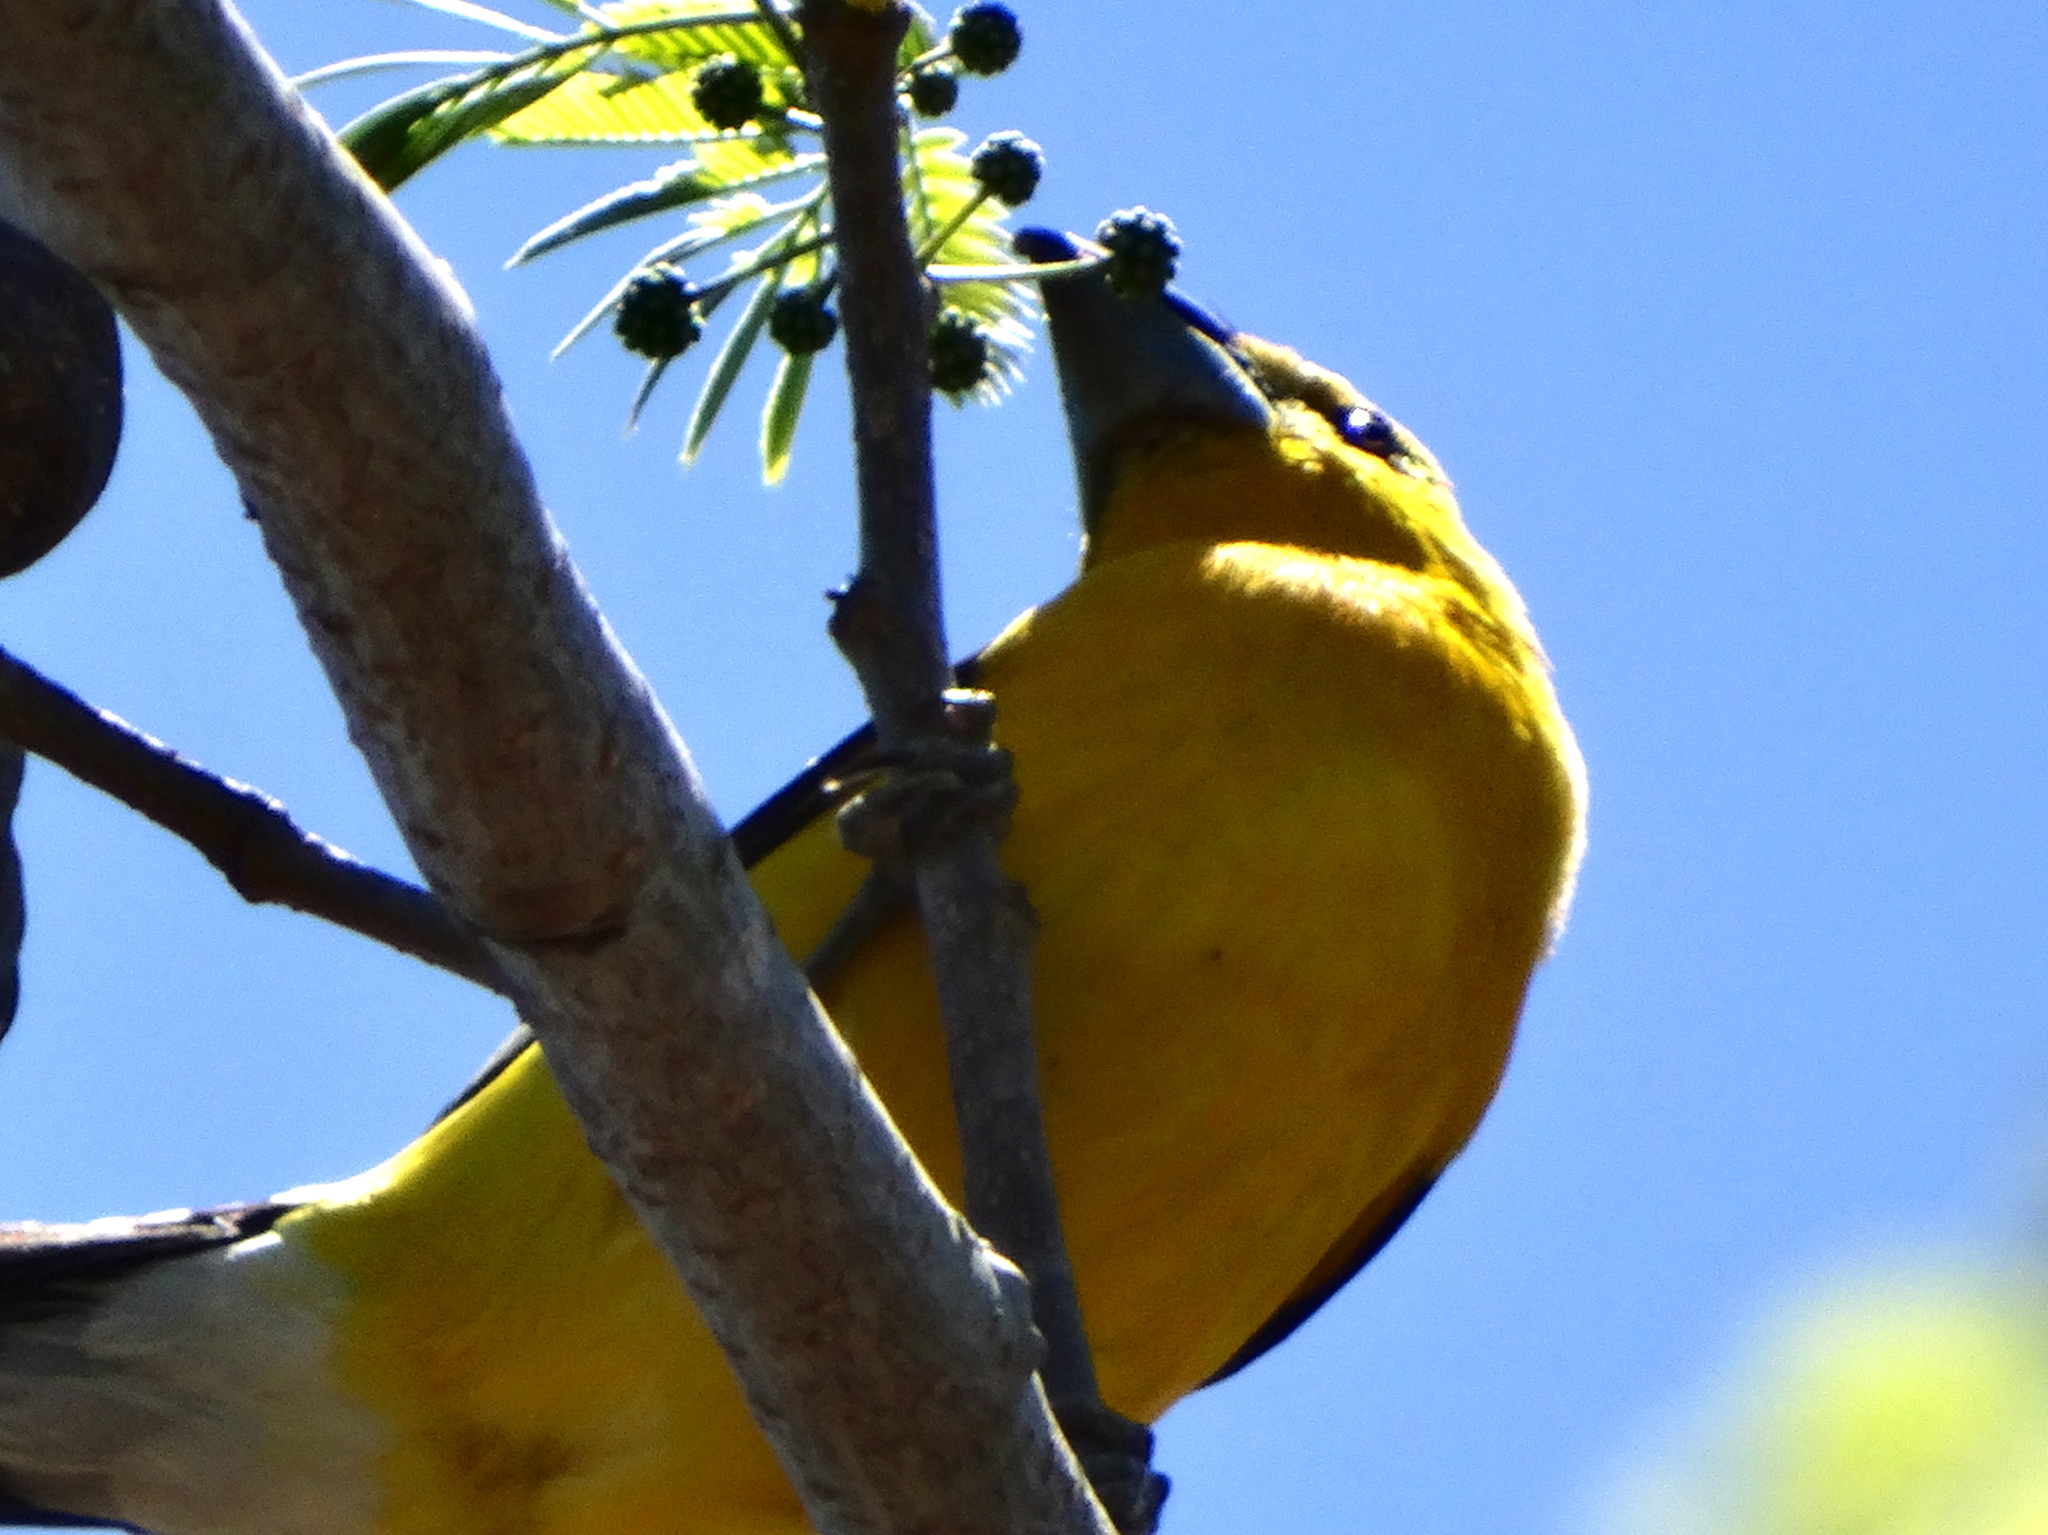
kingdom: Animalia
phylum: Chordata
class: Aves
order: Passeriformes
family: Cardinalidae
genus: Pheucticus
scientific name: Pheucticus chrysopeplus
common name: Yellow grosbeak
